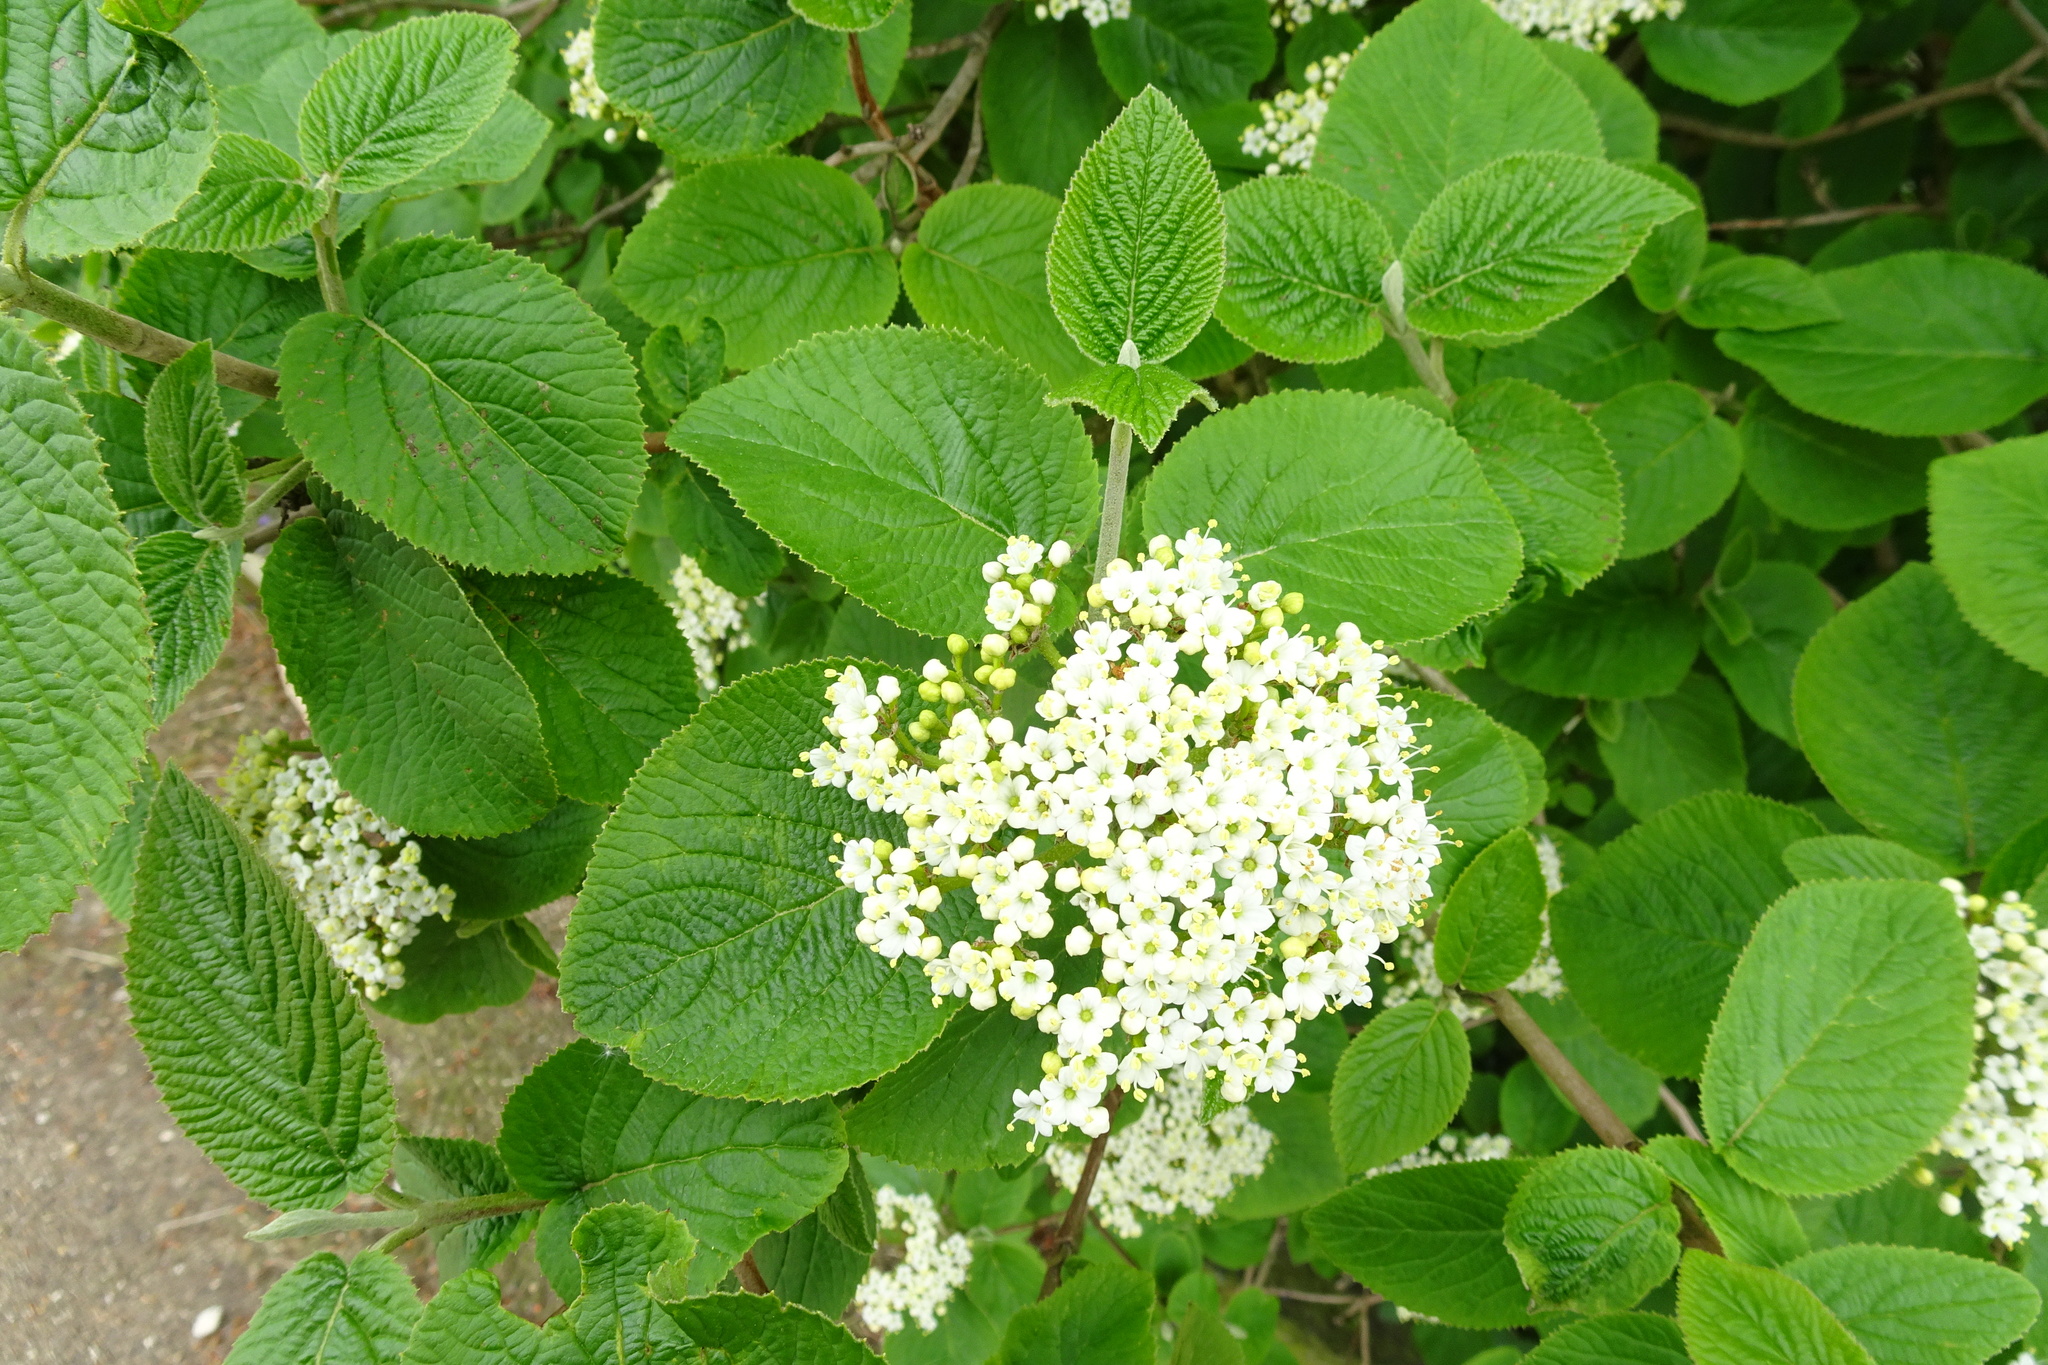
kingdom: Plantae
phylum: Tracheophyta
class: Magnoliopsida
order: Dipsacales
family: Viburnaceae
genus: Viburnum
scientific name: Viburnum lantana
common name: Wayfaring tree
